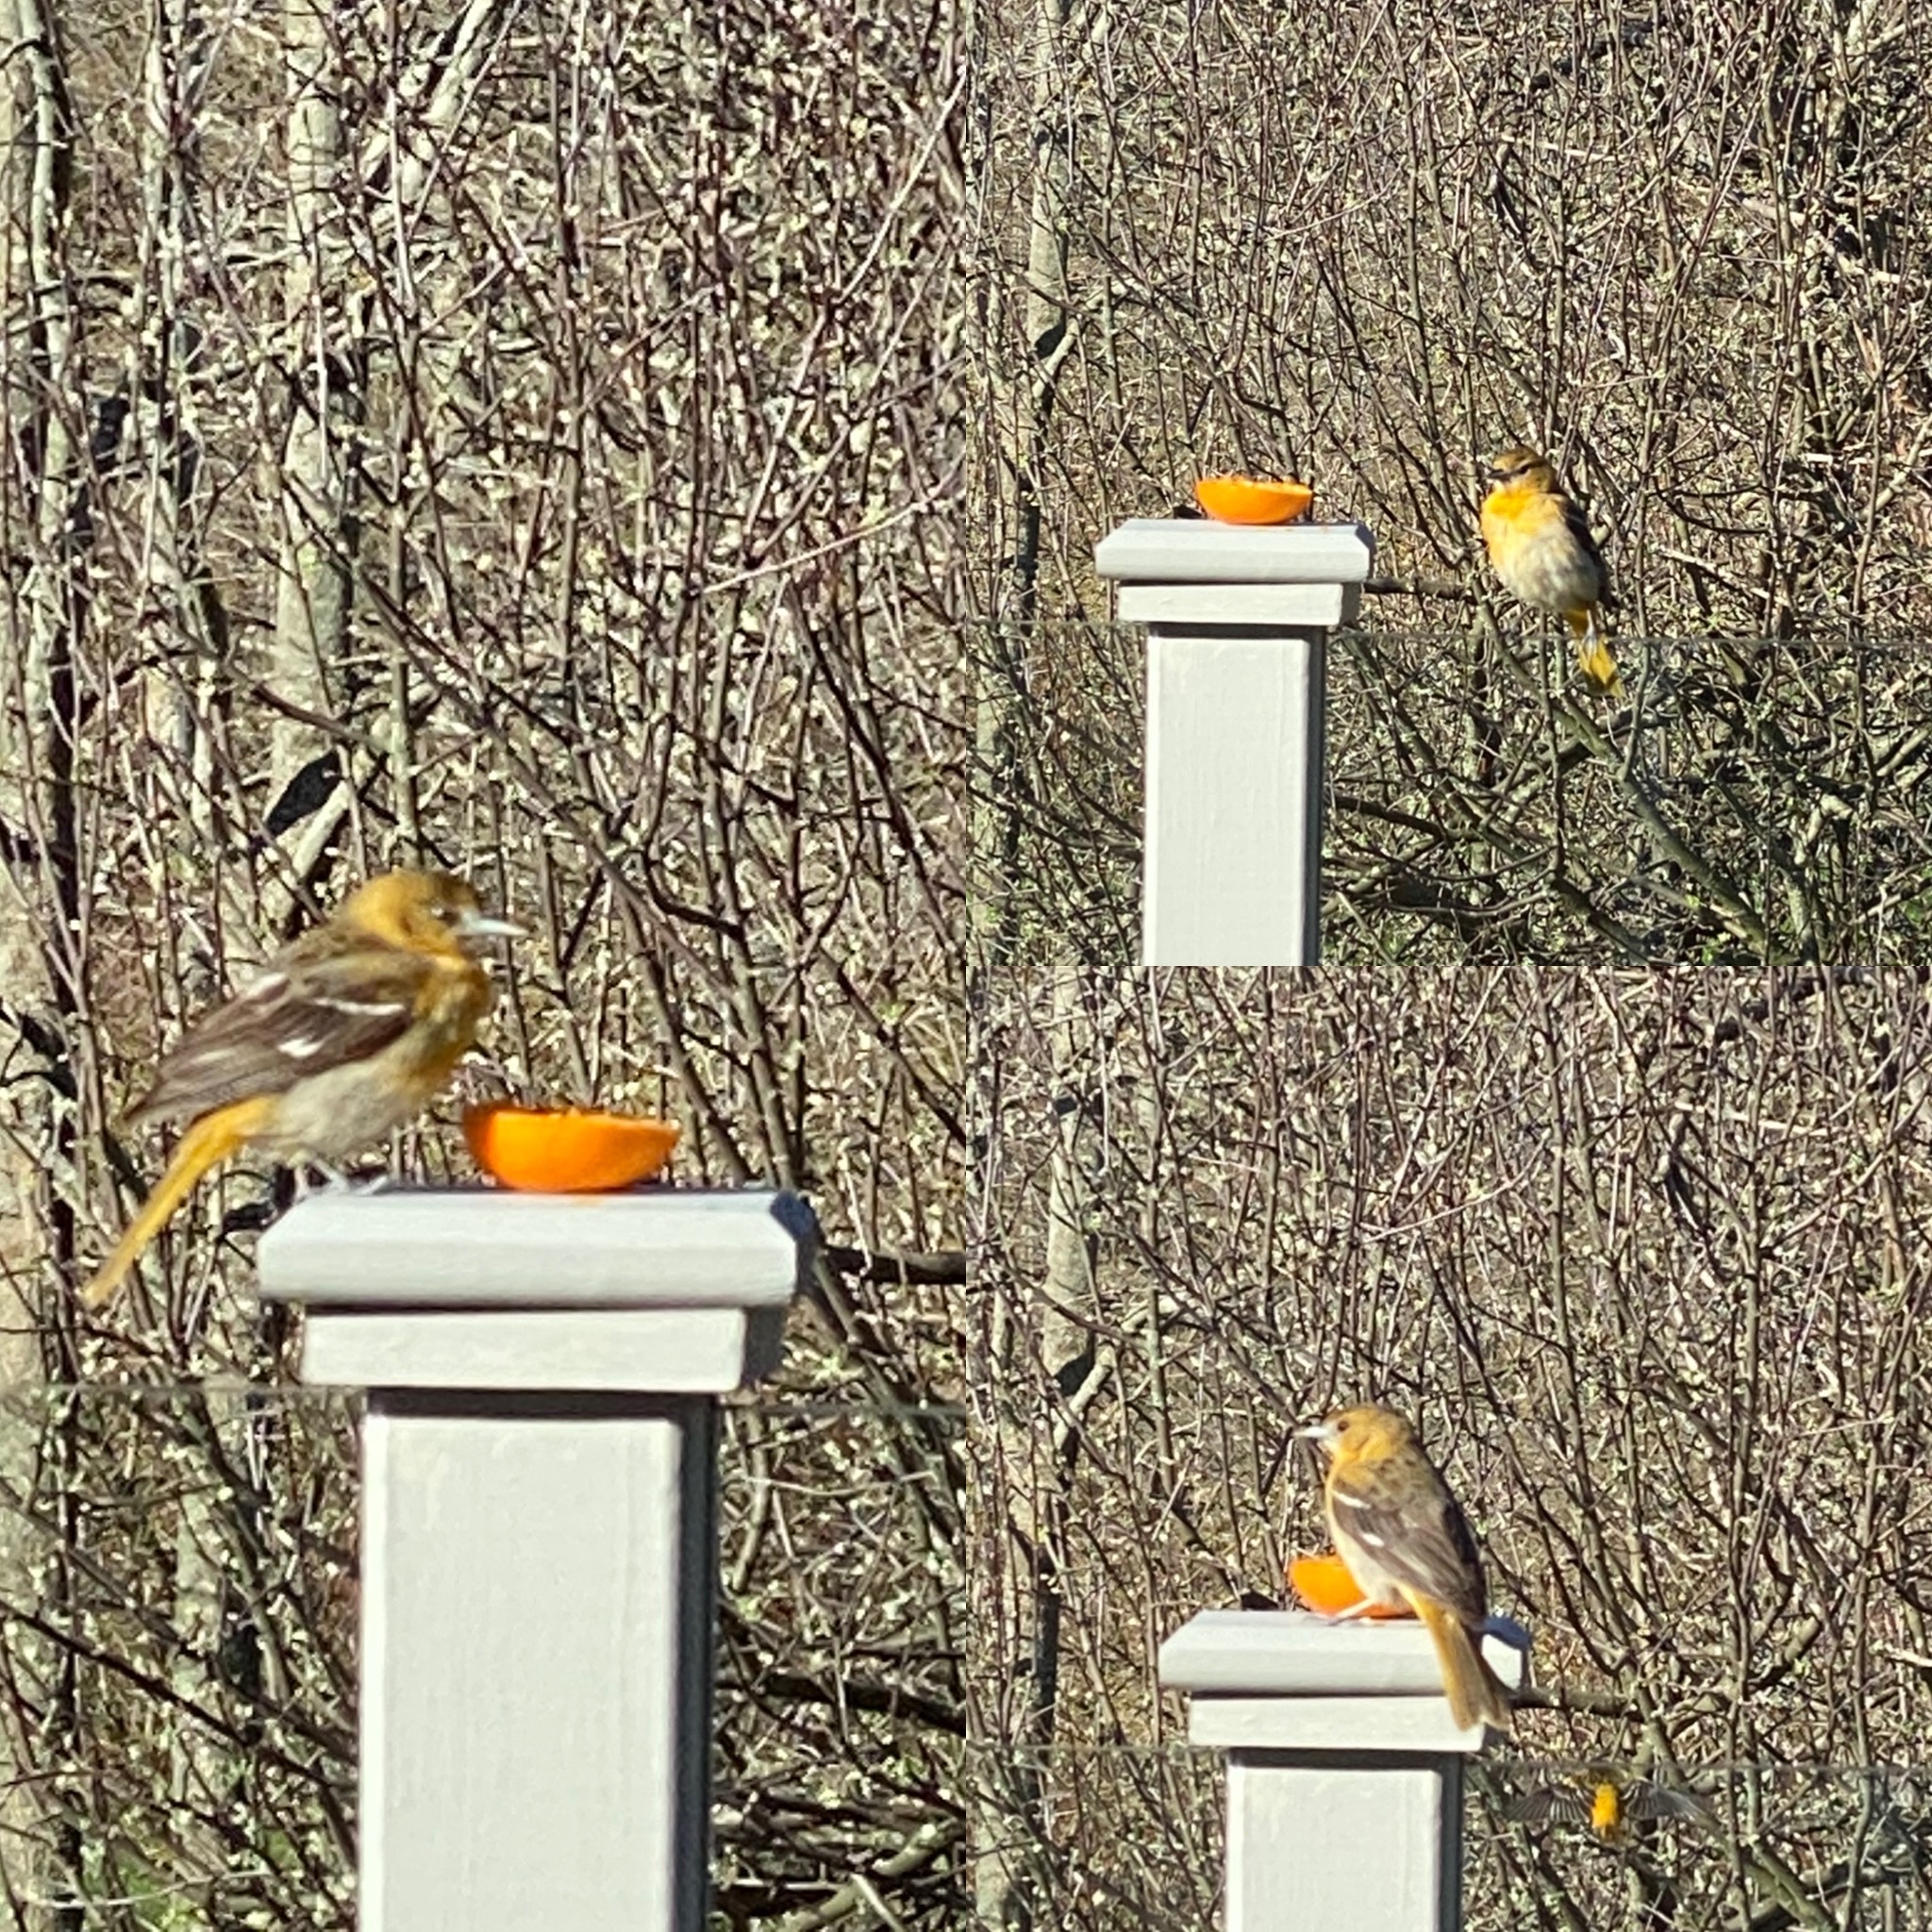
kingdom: Animalia
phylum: Chordata
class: Aves
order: Passeriformes
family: Icteridae
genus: Icterus
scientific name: Icterus galbula
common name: Baltimore oriole
